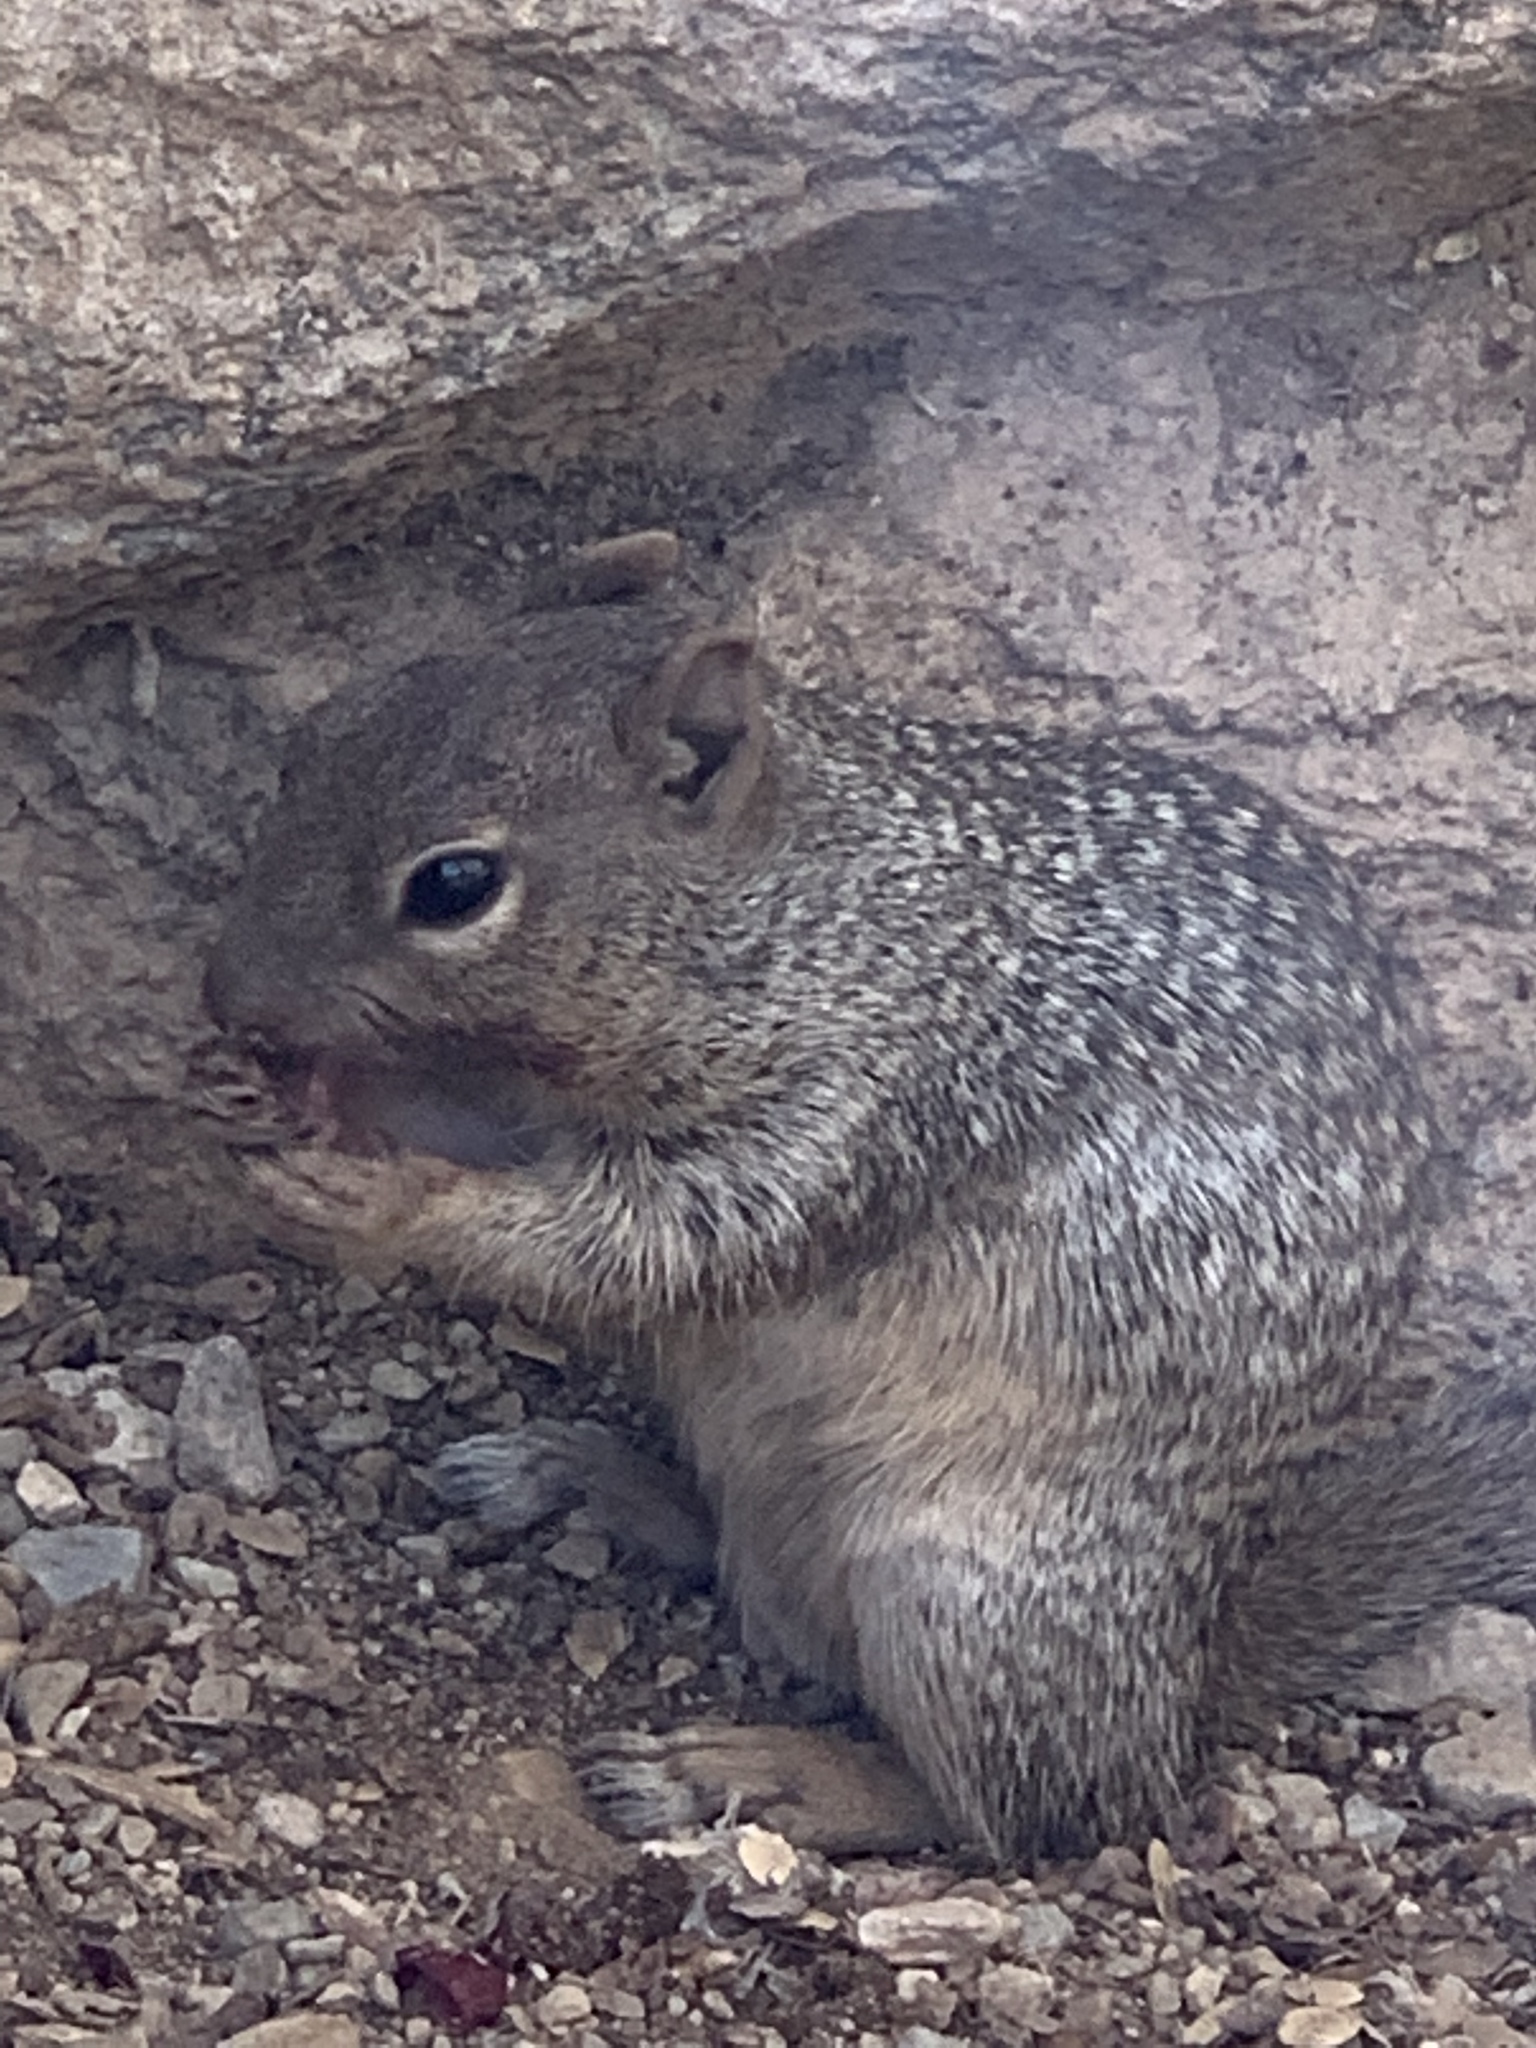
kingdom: Animalia
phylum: Chordata
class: Mammalia
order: Rodentia
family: Sciuridae
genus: Otospermophilus
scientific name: Otospermophilus variegatus
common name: Rock squirrel
